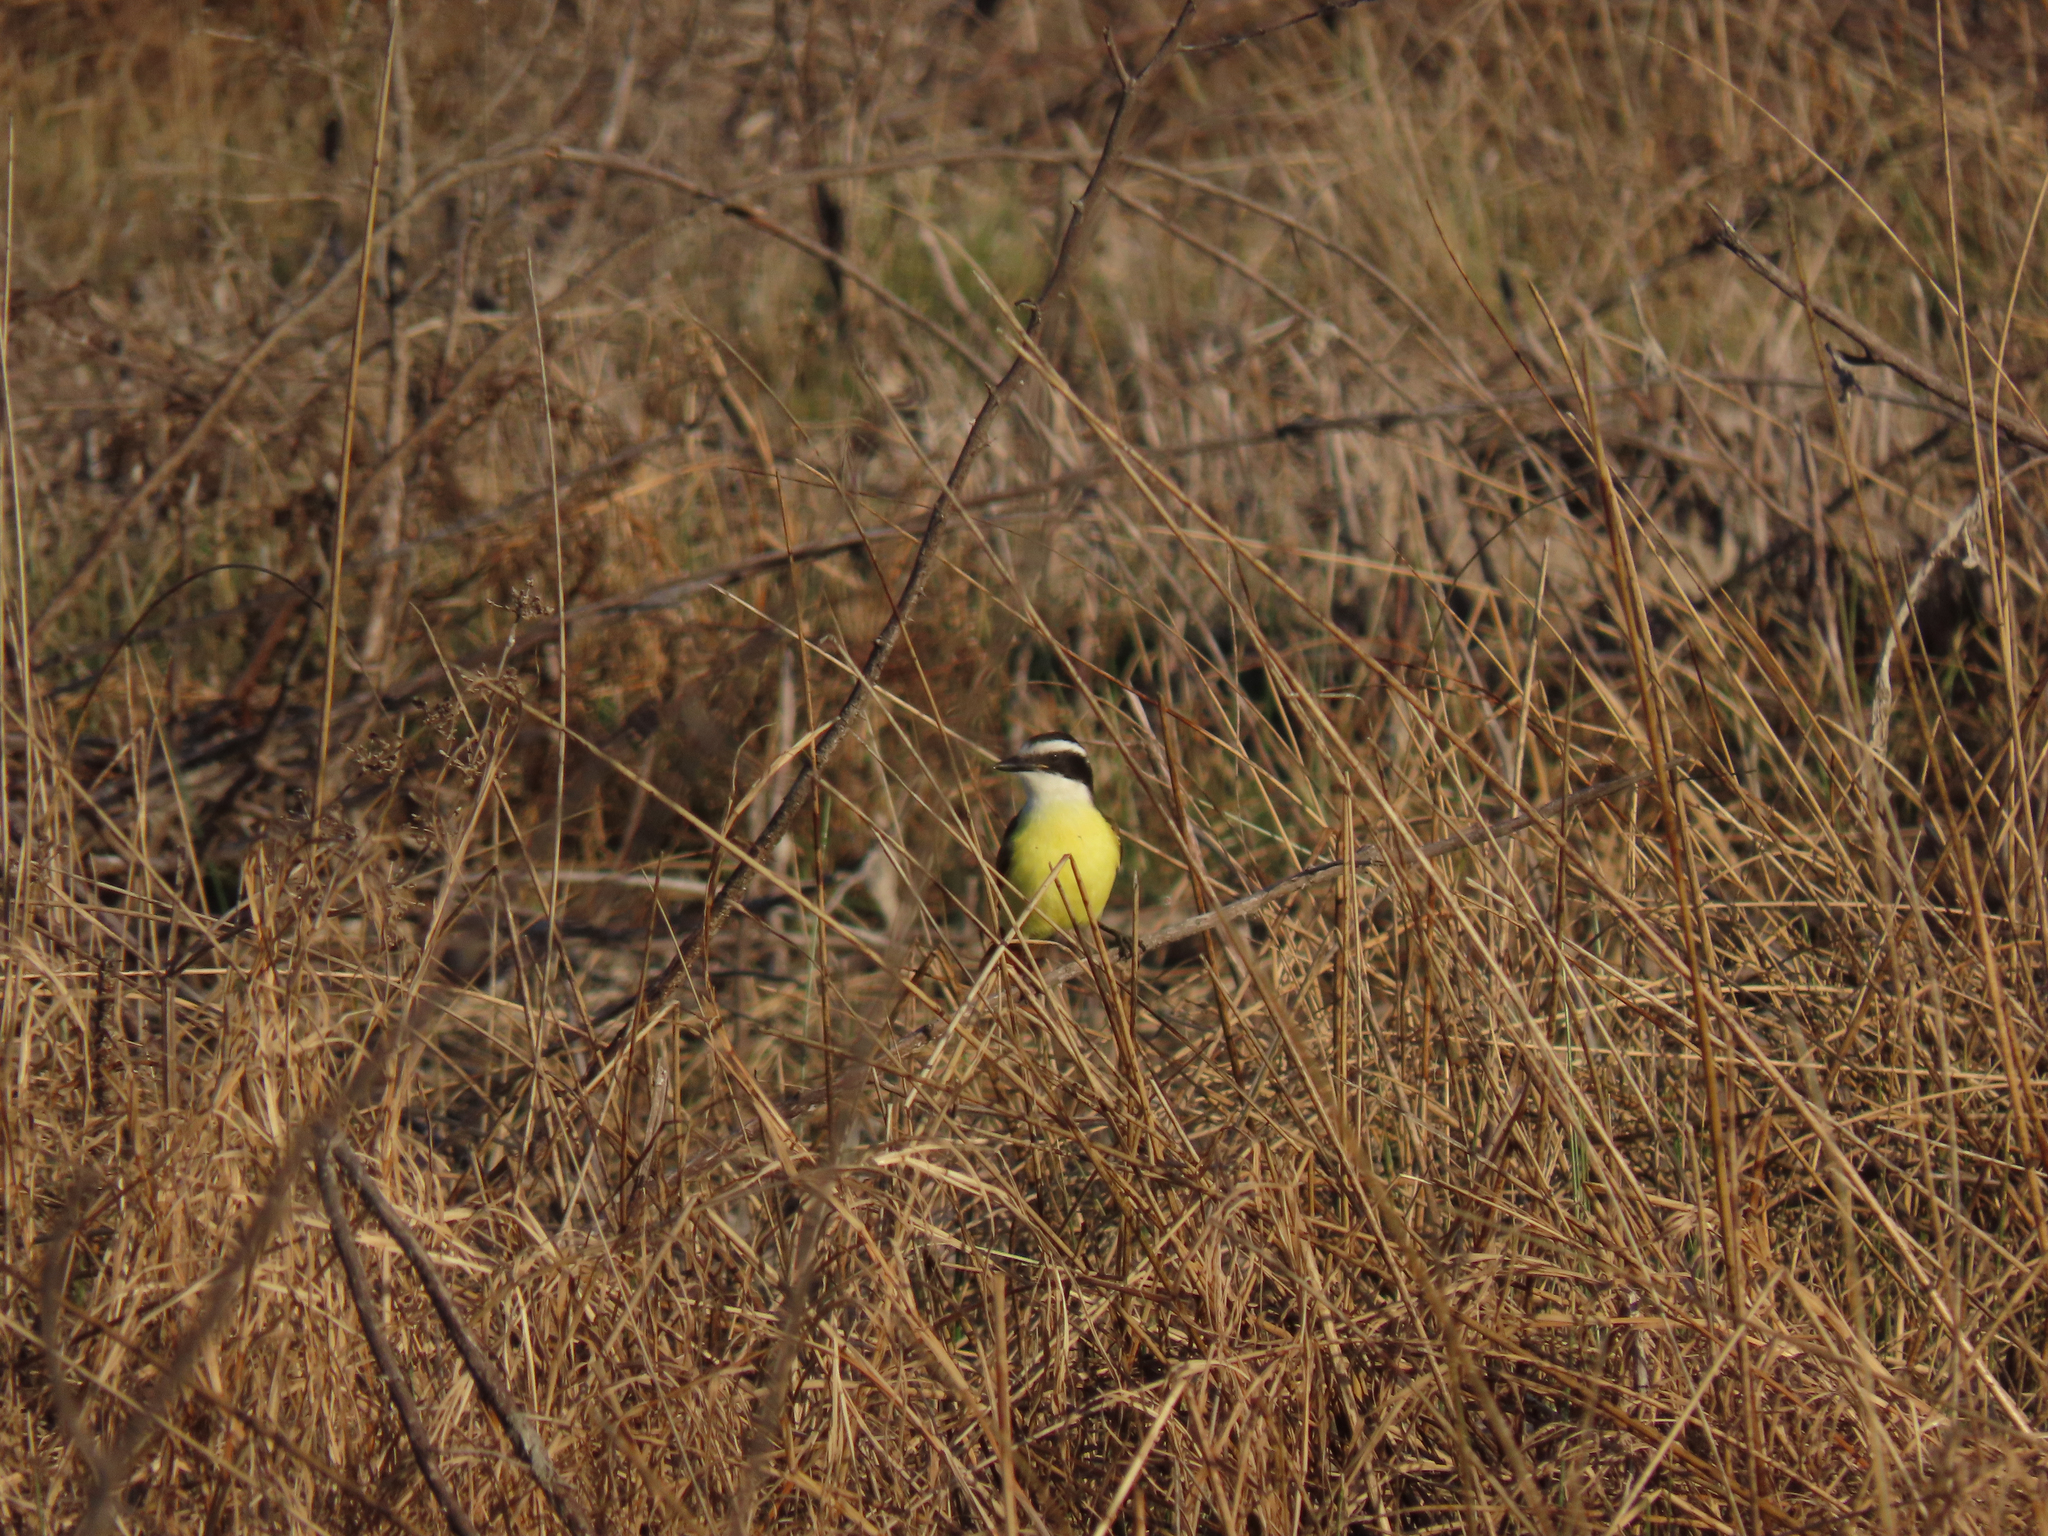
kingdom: Animalia
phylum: Chordata
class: Aves
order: Passeriformes
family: Tyrannidae
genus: Pitangus
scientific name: Pitangus sulphuratus
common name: Great kiskadee
